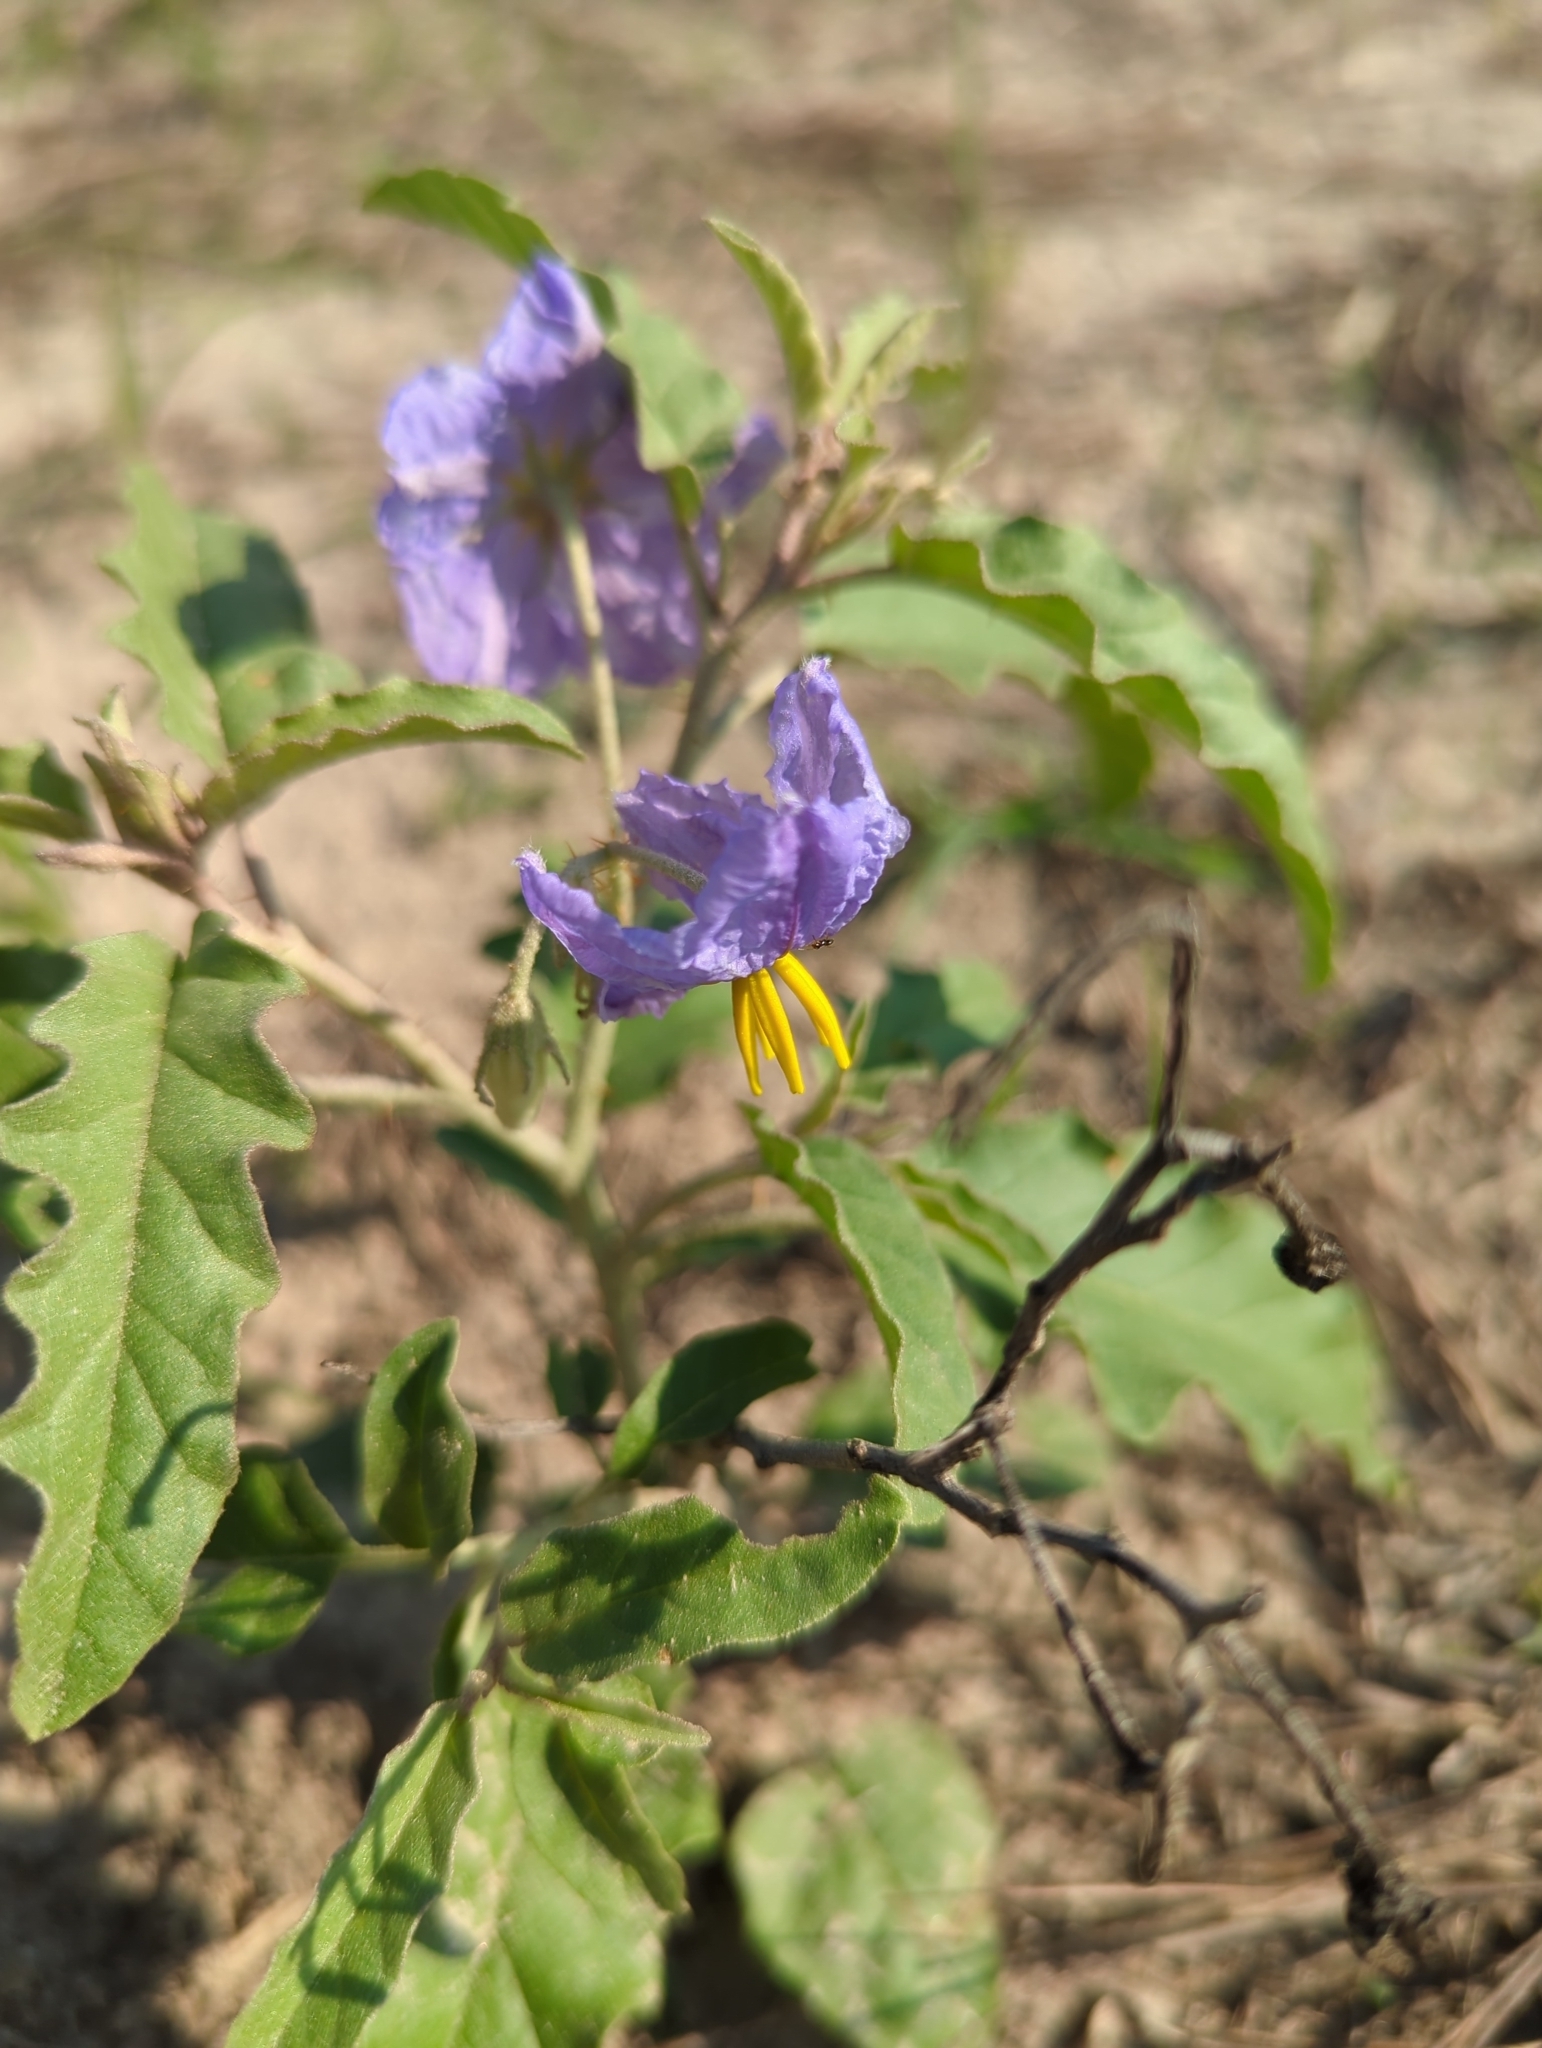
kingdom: Plantae
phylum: Tracheophyta
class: Magnoliopsida
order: Solanales
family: Solanaceae
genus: Solanum
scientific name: Solanum elaeagnifolium
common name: Silverleaf nightshade
